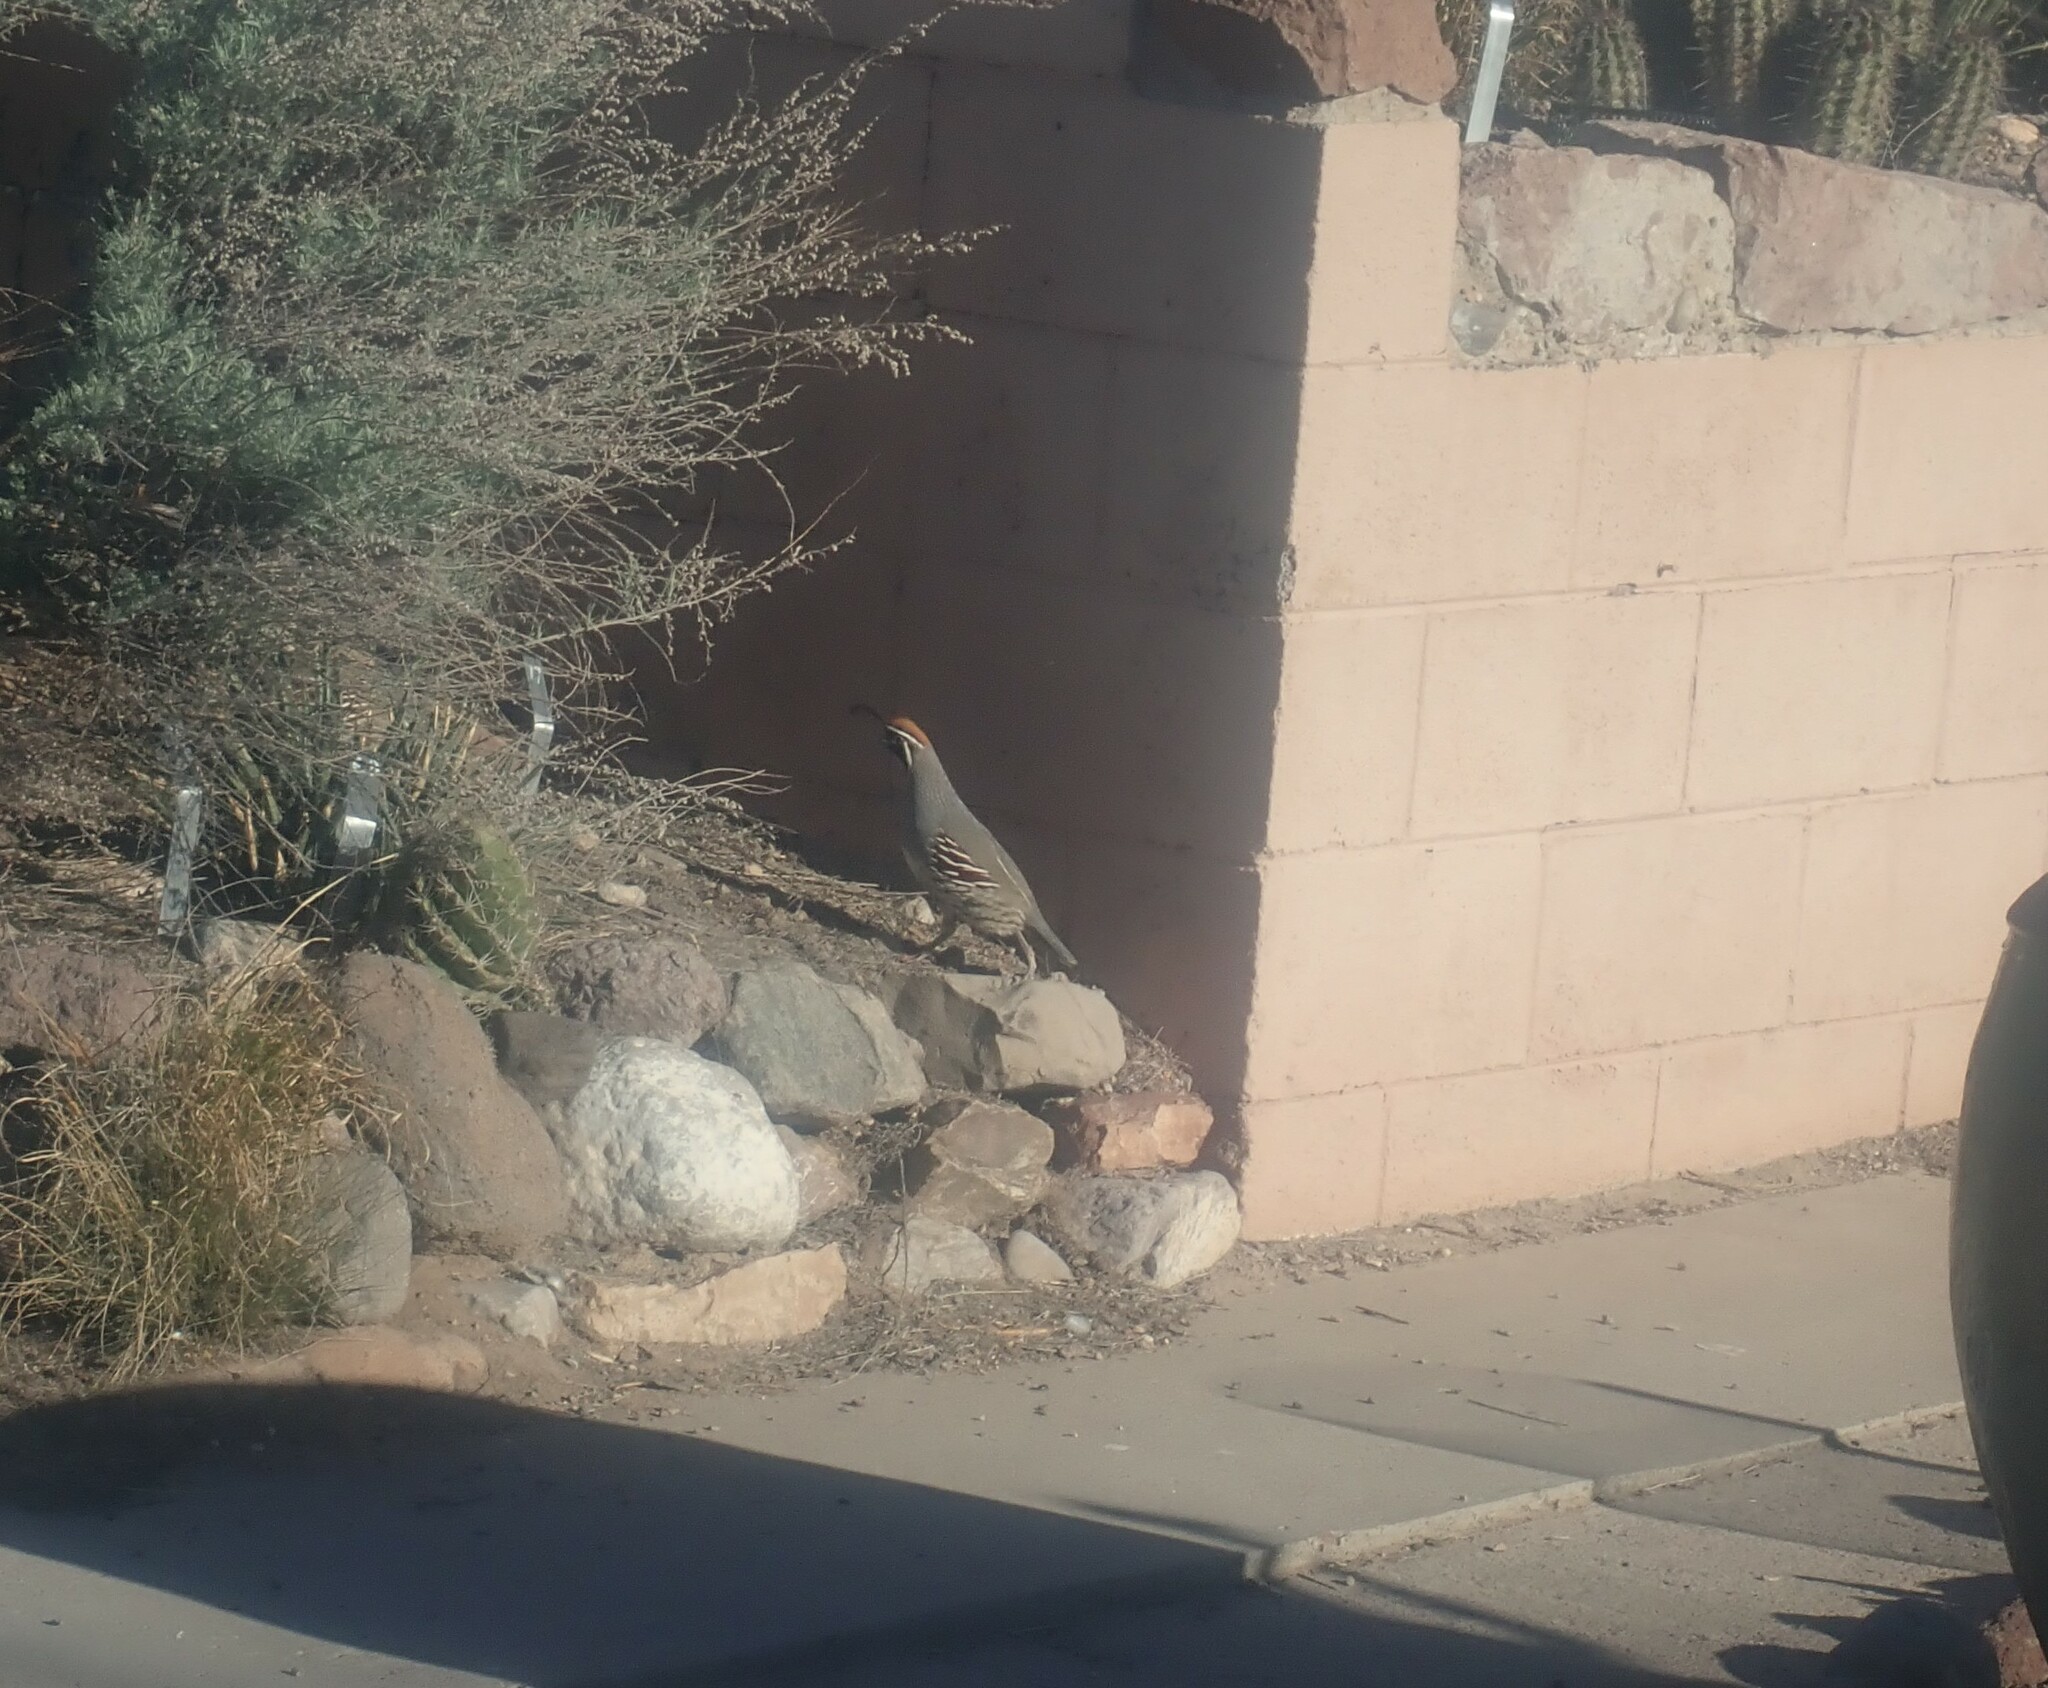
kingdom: Animalia
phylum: Chordata
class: Aves
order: Galliformes
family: Odontophoridae
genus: Callipepla
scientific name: Callipepla gambelii
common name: Gambel's quail
